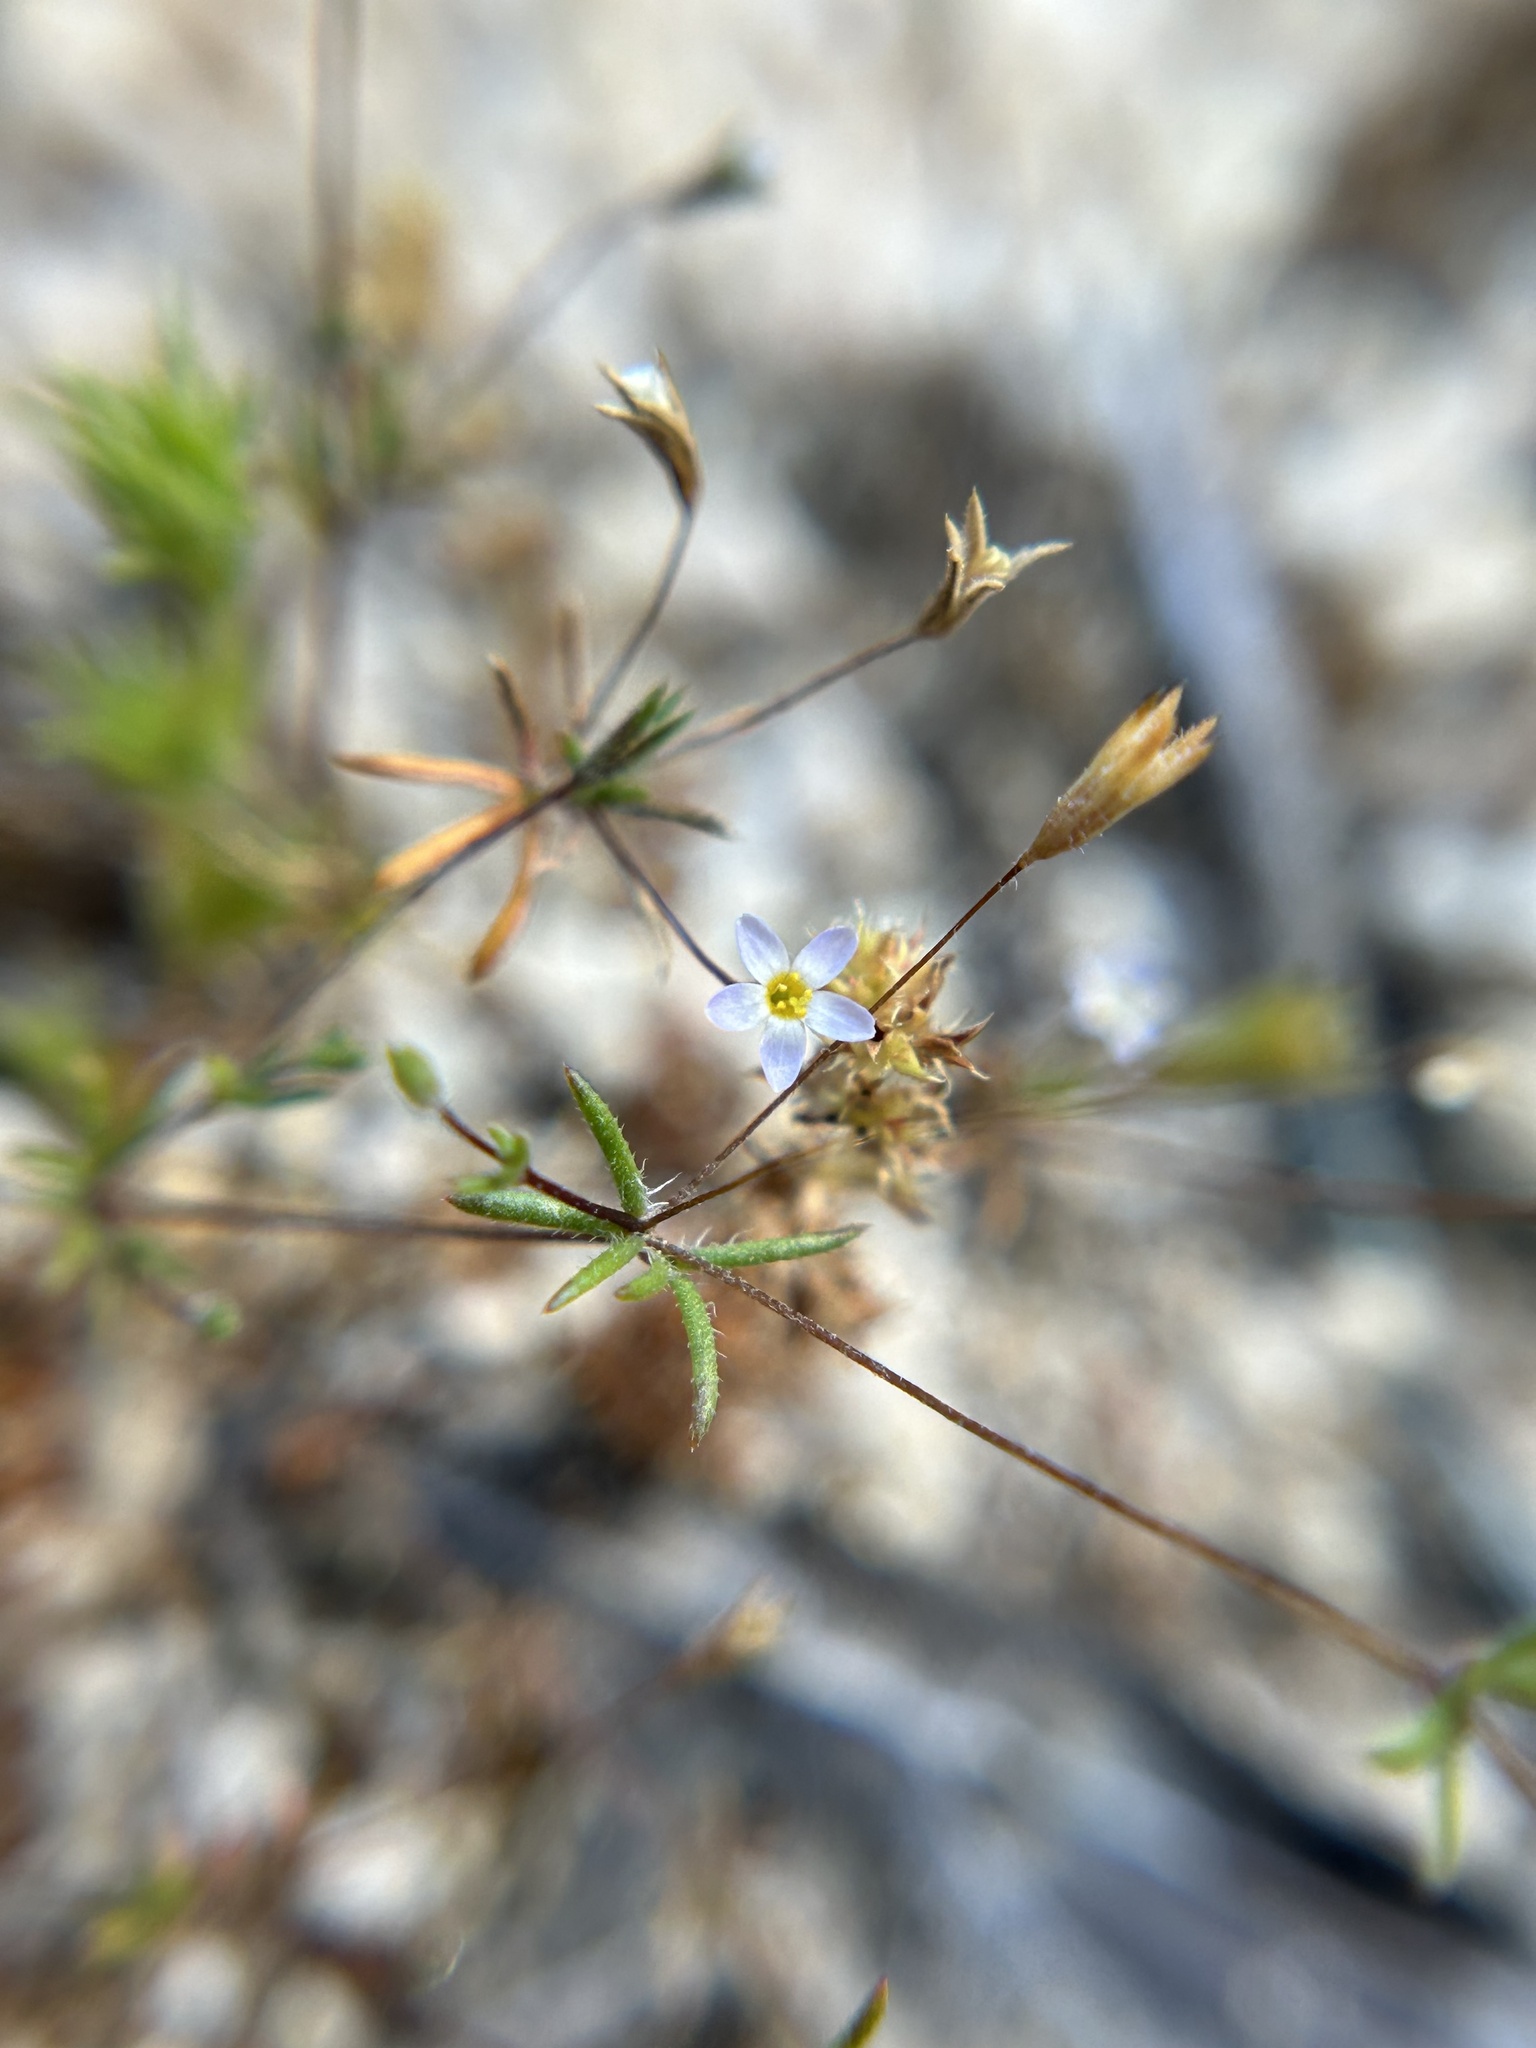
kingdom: Plantae
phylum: Tracheophyta
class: Magnoliopsida
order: Ericales
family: Polemoniaceae
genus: Leptosiphon
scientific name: Leptosiphon pygmaeus
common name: Pygmy linanthus
